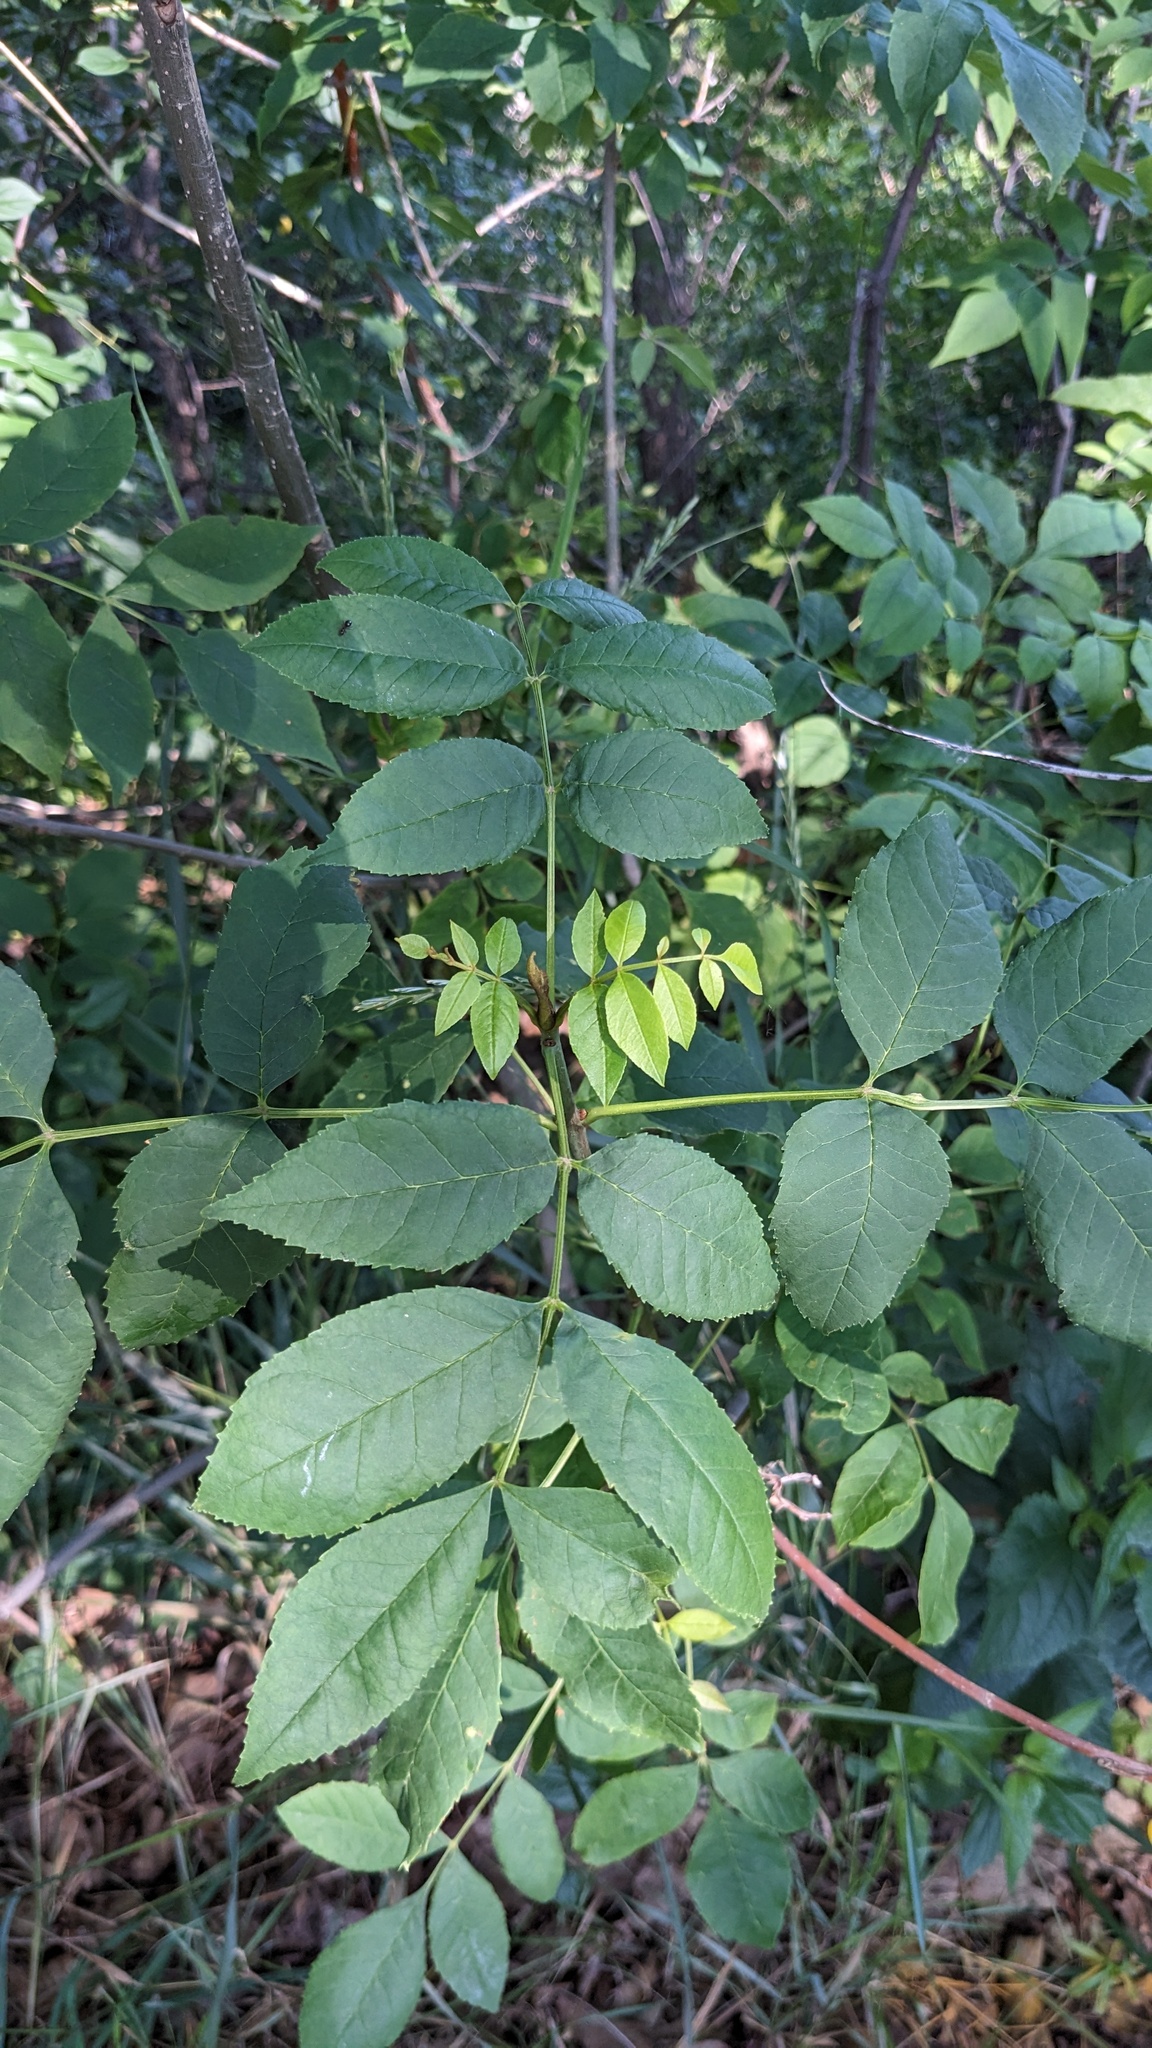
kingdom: Plantae
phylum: Tracheophyta
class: Magnoliopsida
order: Rosales
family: Rosaceae
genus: Rosa
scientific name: Rosa multiflora
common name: Multiflora rose
